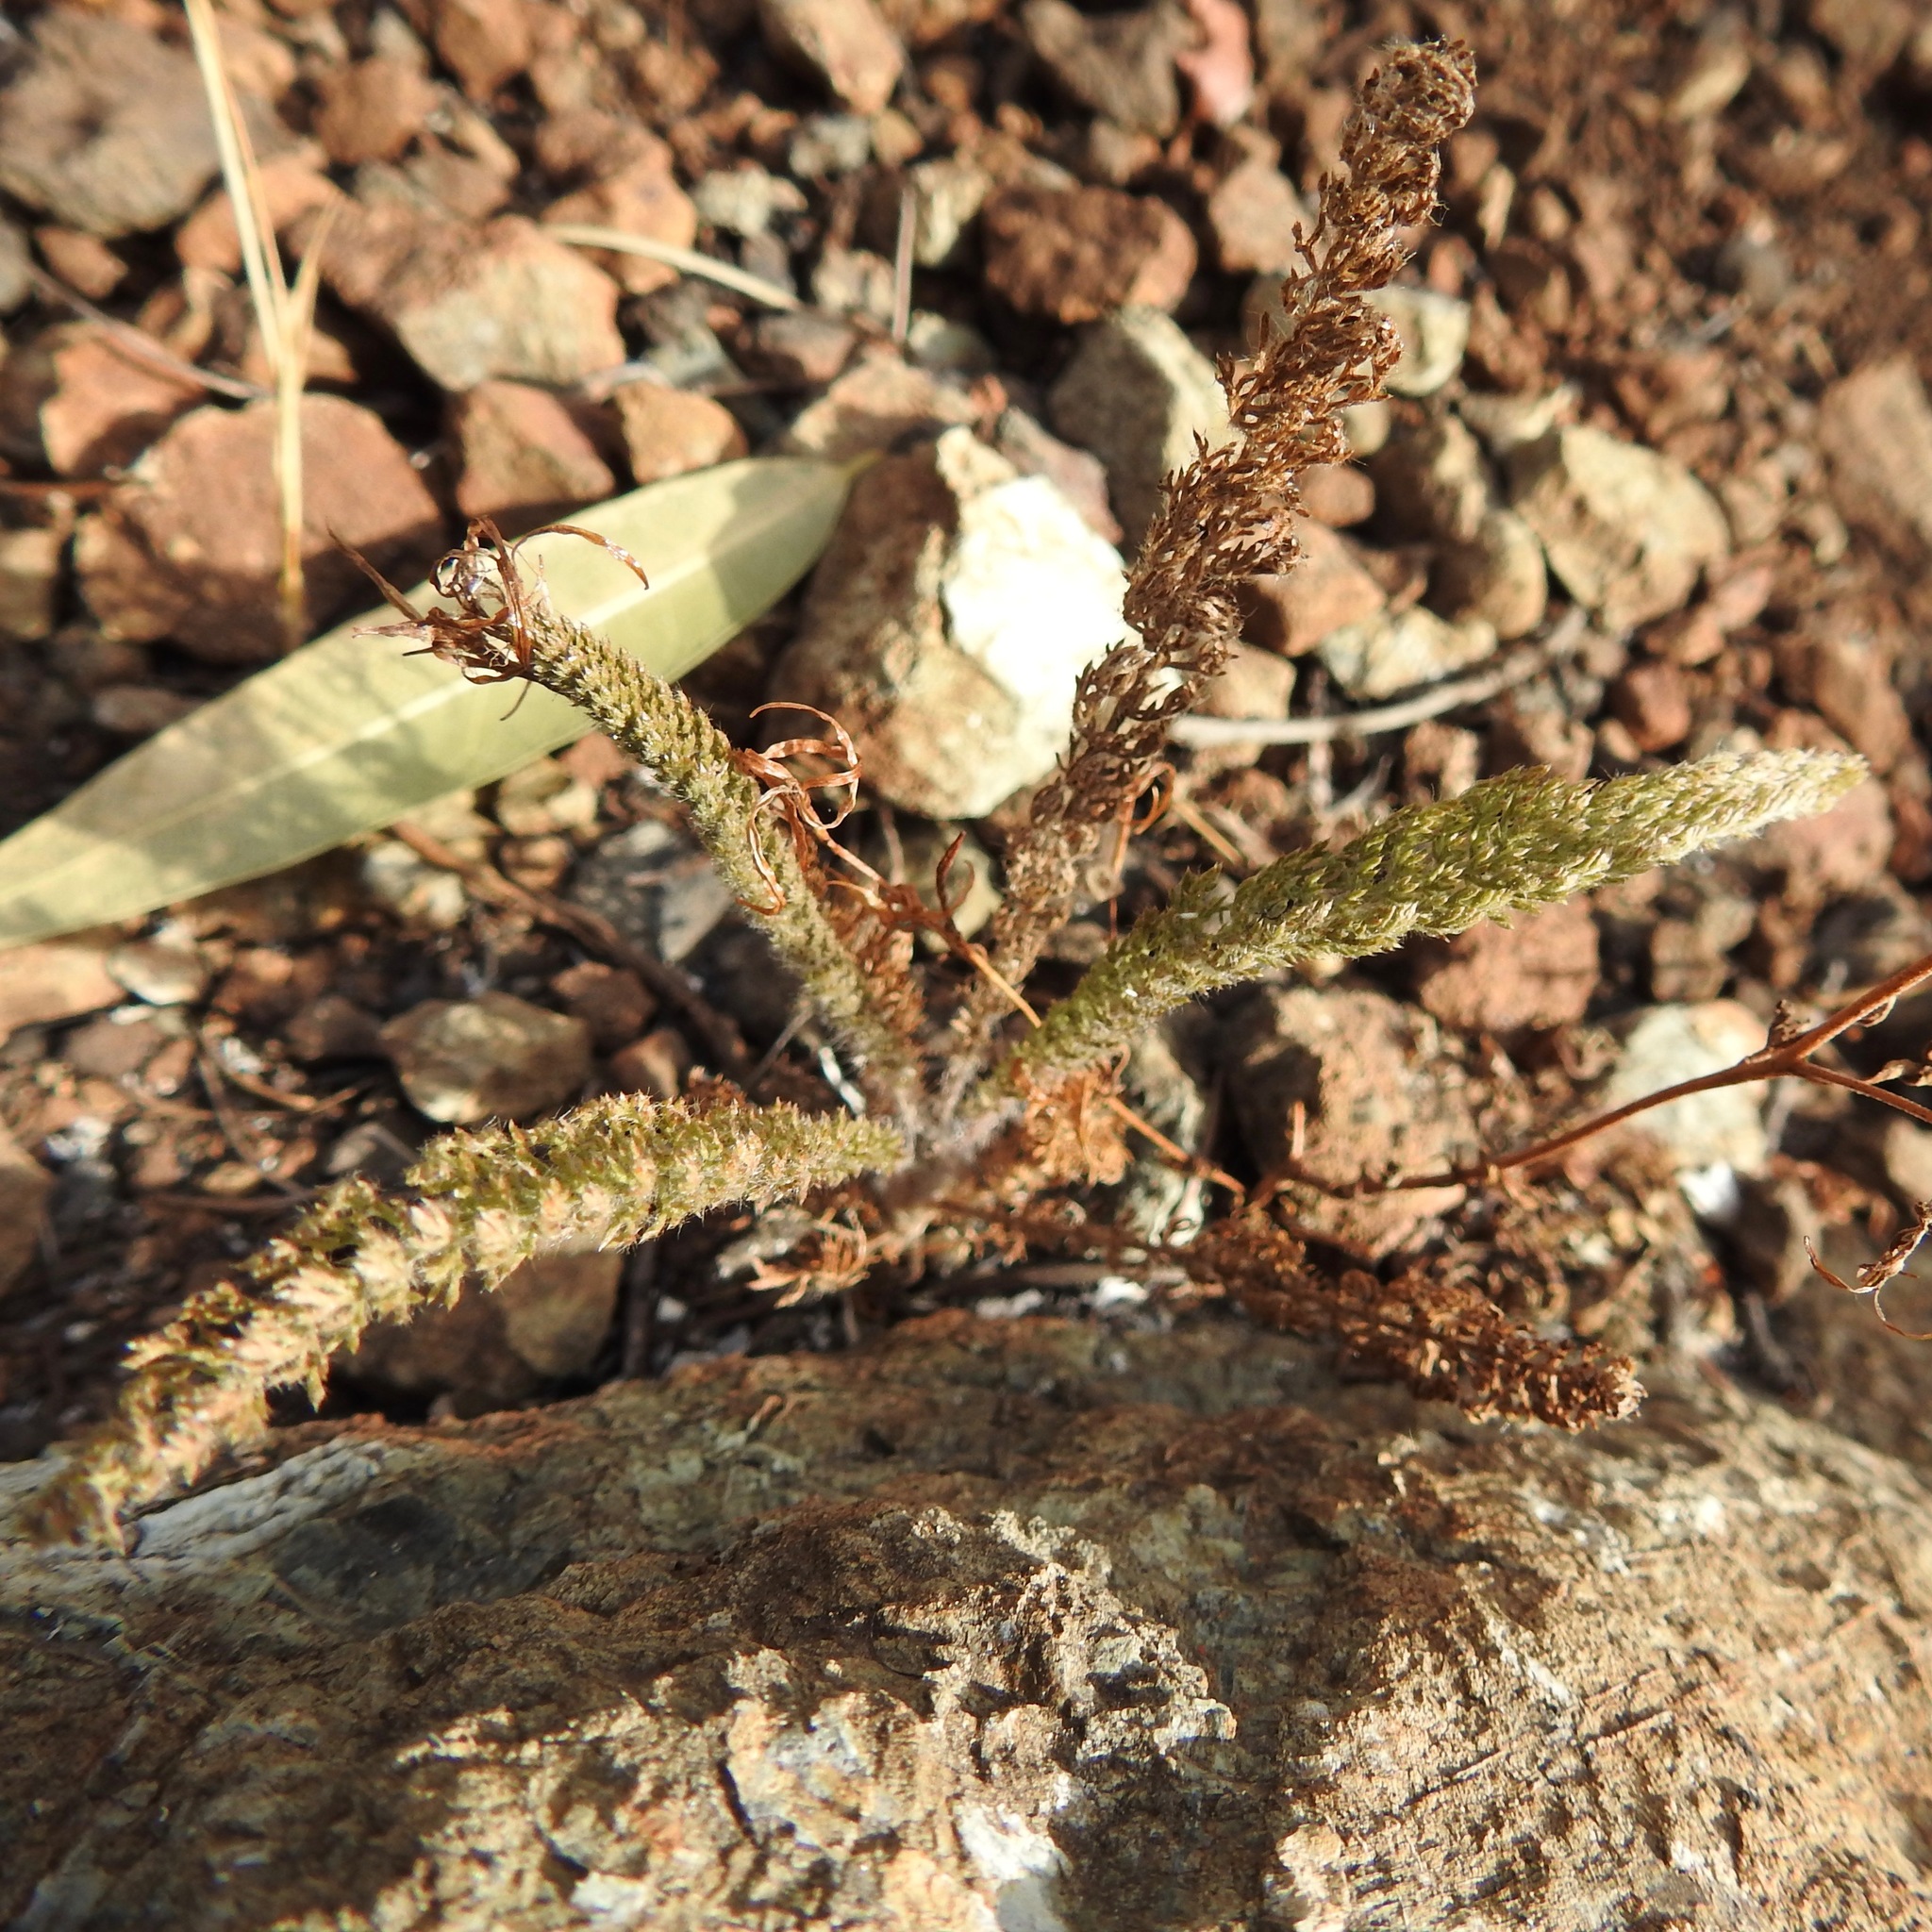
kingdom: Plantae
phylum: Tracheophyta
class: Magnoliopsida
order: Asterales
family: Asteraceae
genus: Achillea
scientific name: Achillea millefolium
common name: Yarrow
